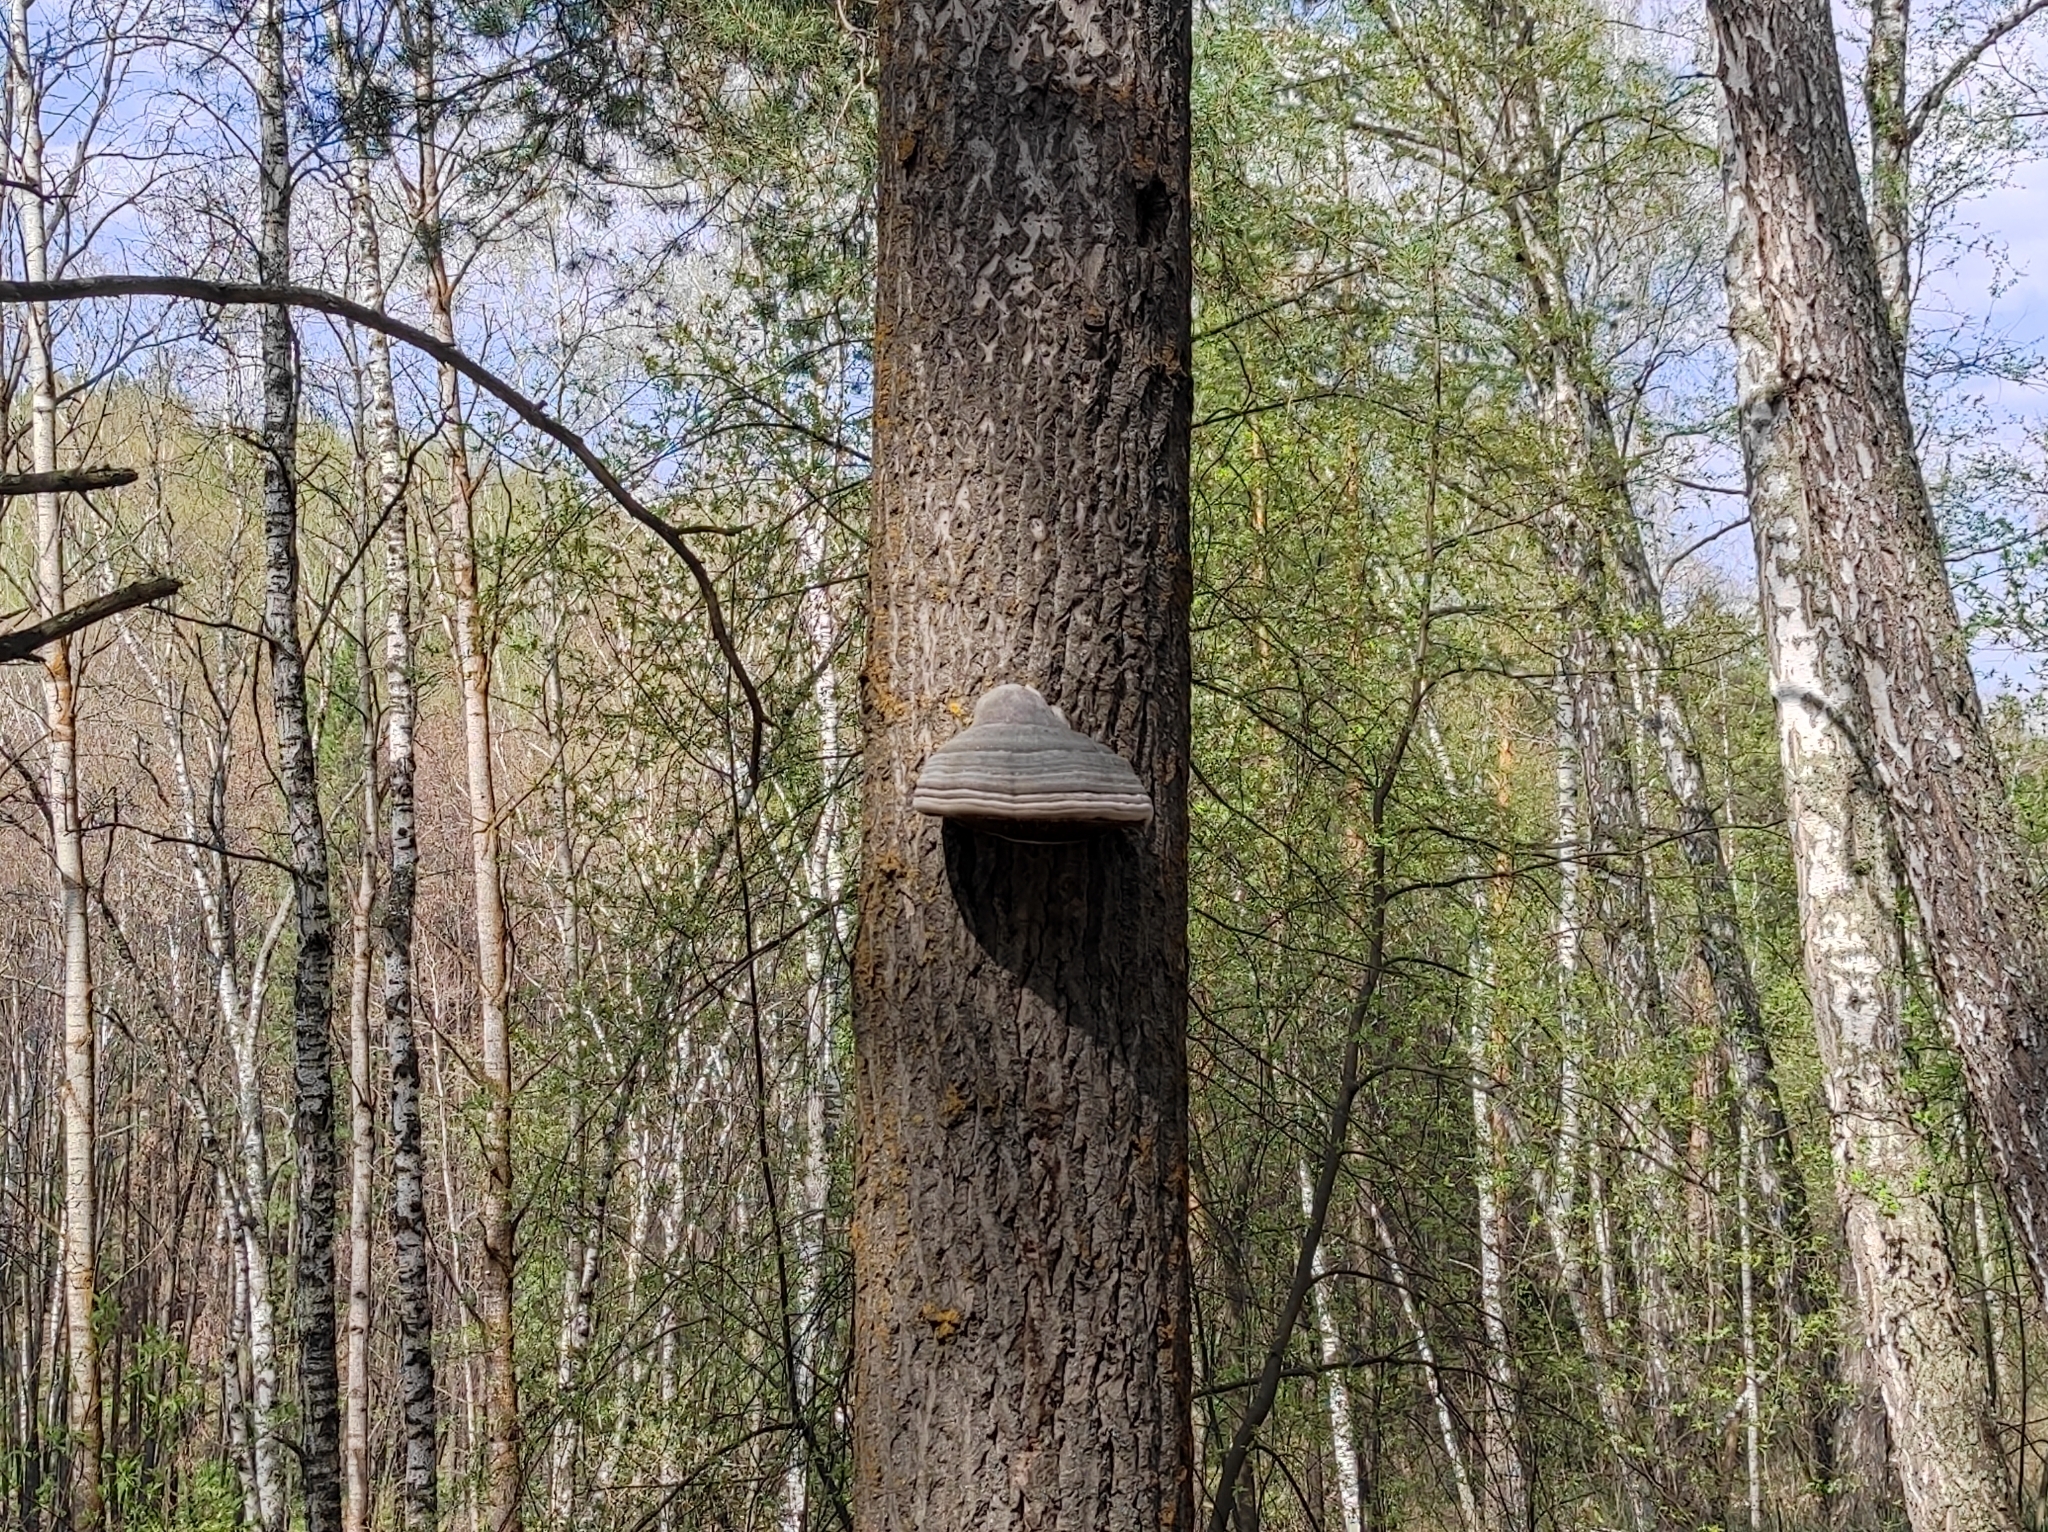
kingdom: Plantae
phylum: Tracheophyta
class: Pinopsida
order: Pinales
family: Pinaceae
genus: Pinus
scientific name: Pinus sylvestris
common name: Scots pine
